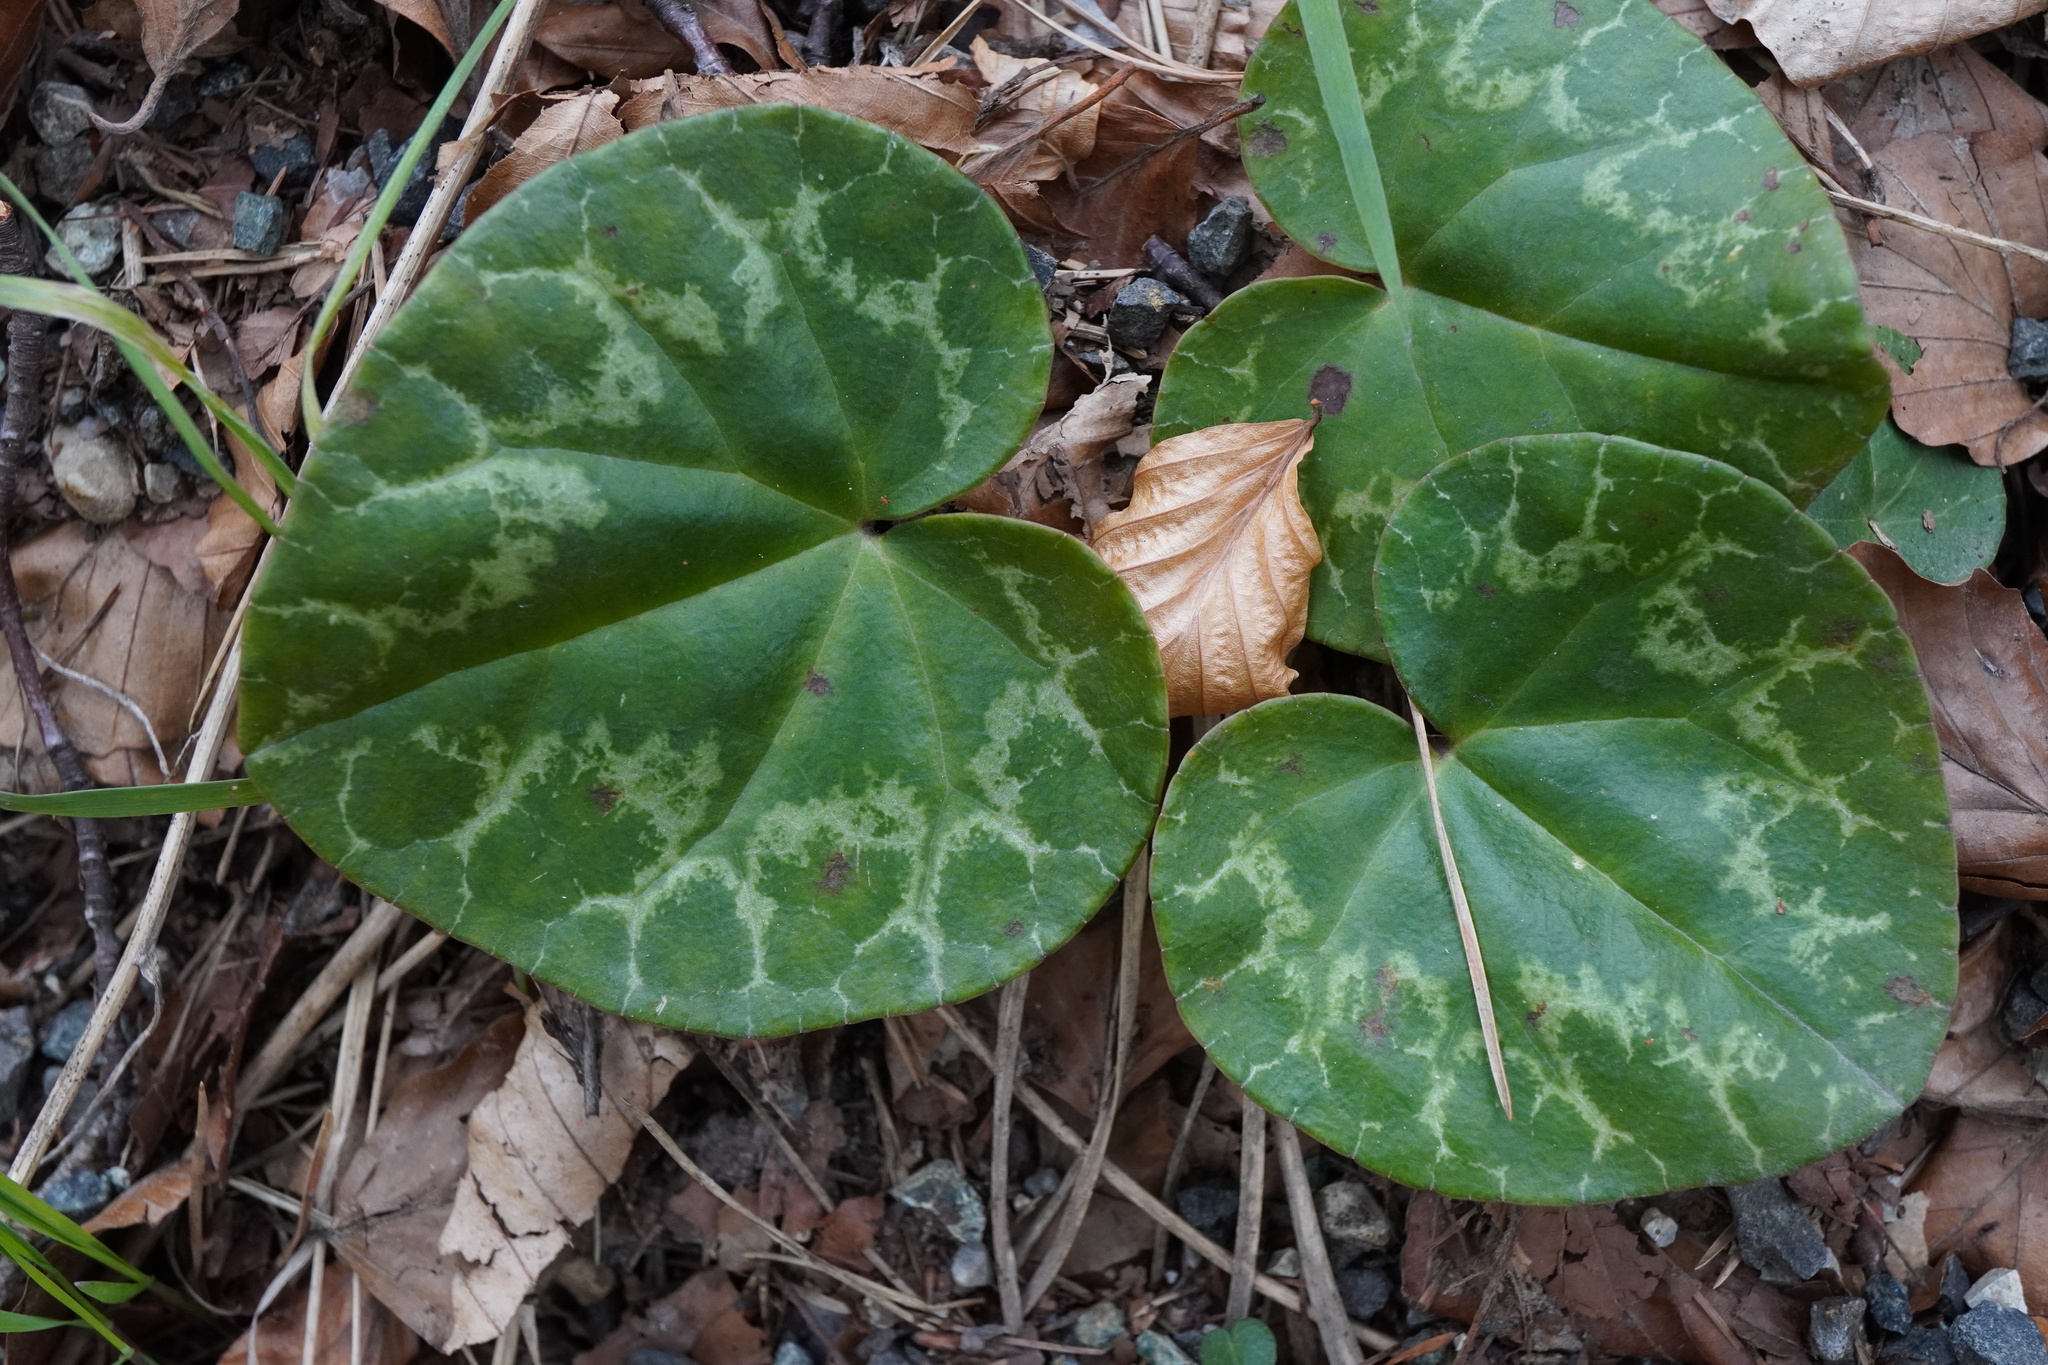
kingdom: Plantae
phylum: Tracheophyta
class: Magnoliopsida
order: Ericales
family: Primulaceae
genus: Cyclamen
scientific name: Cyclamen purpurascens
